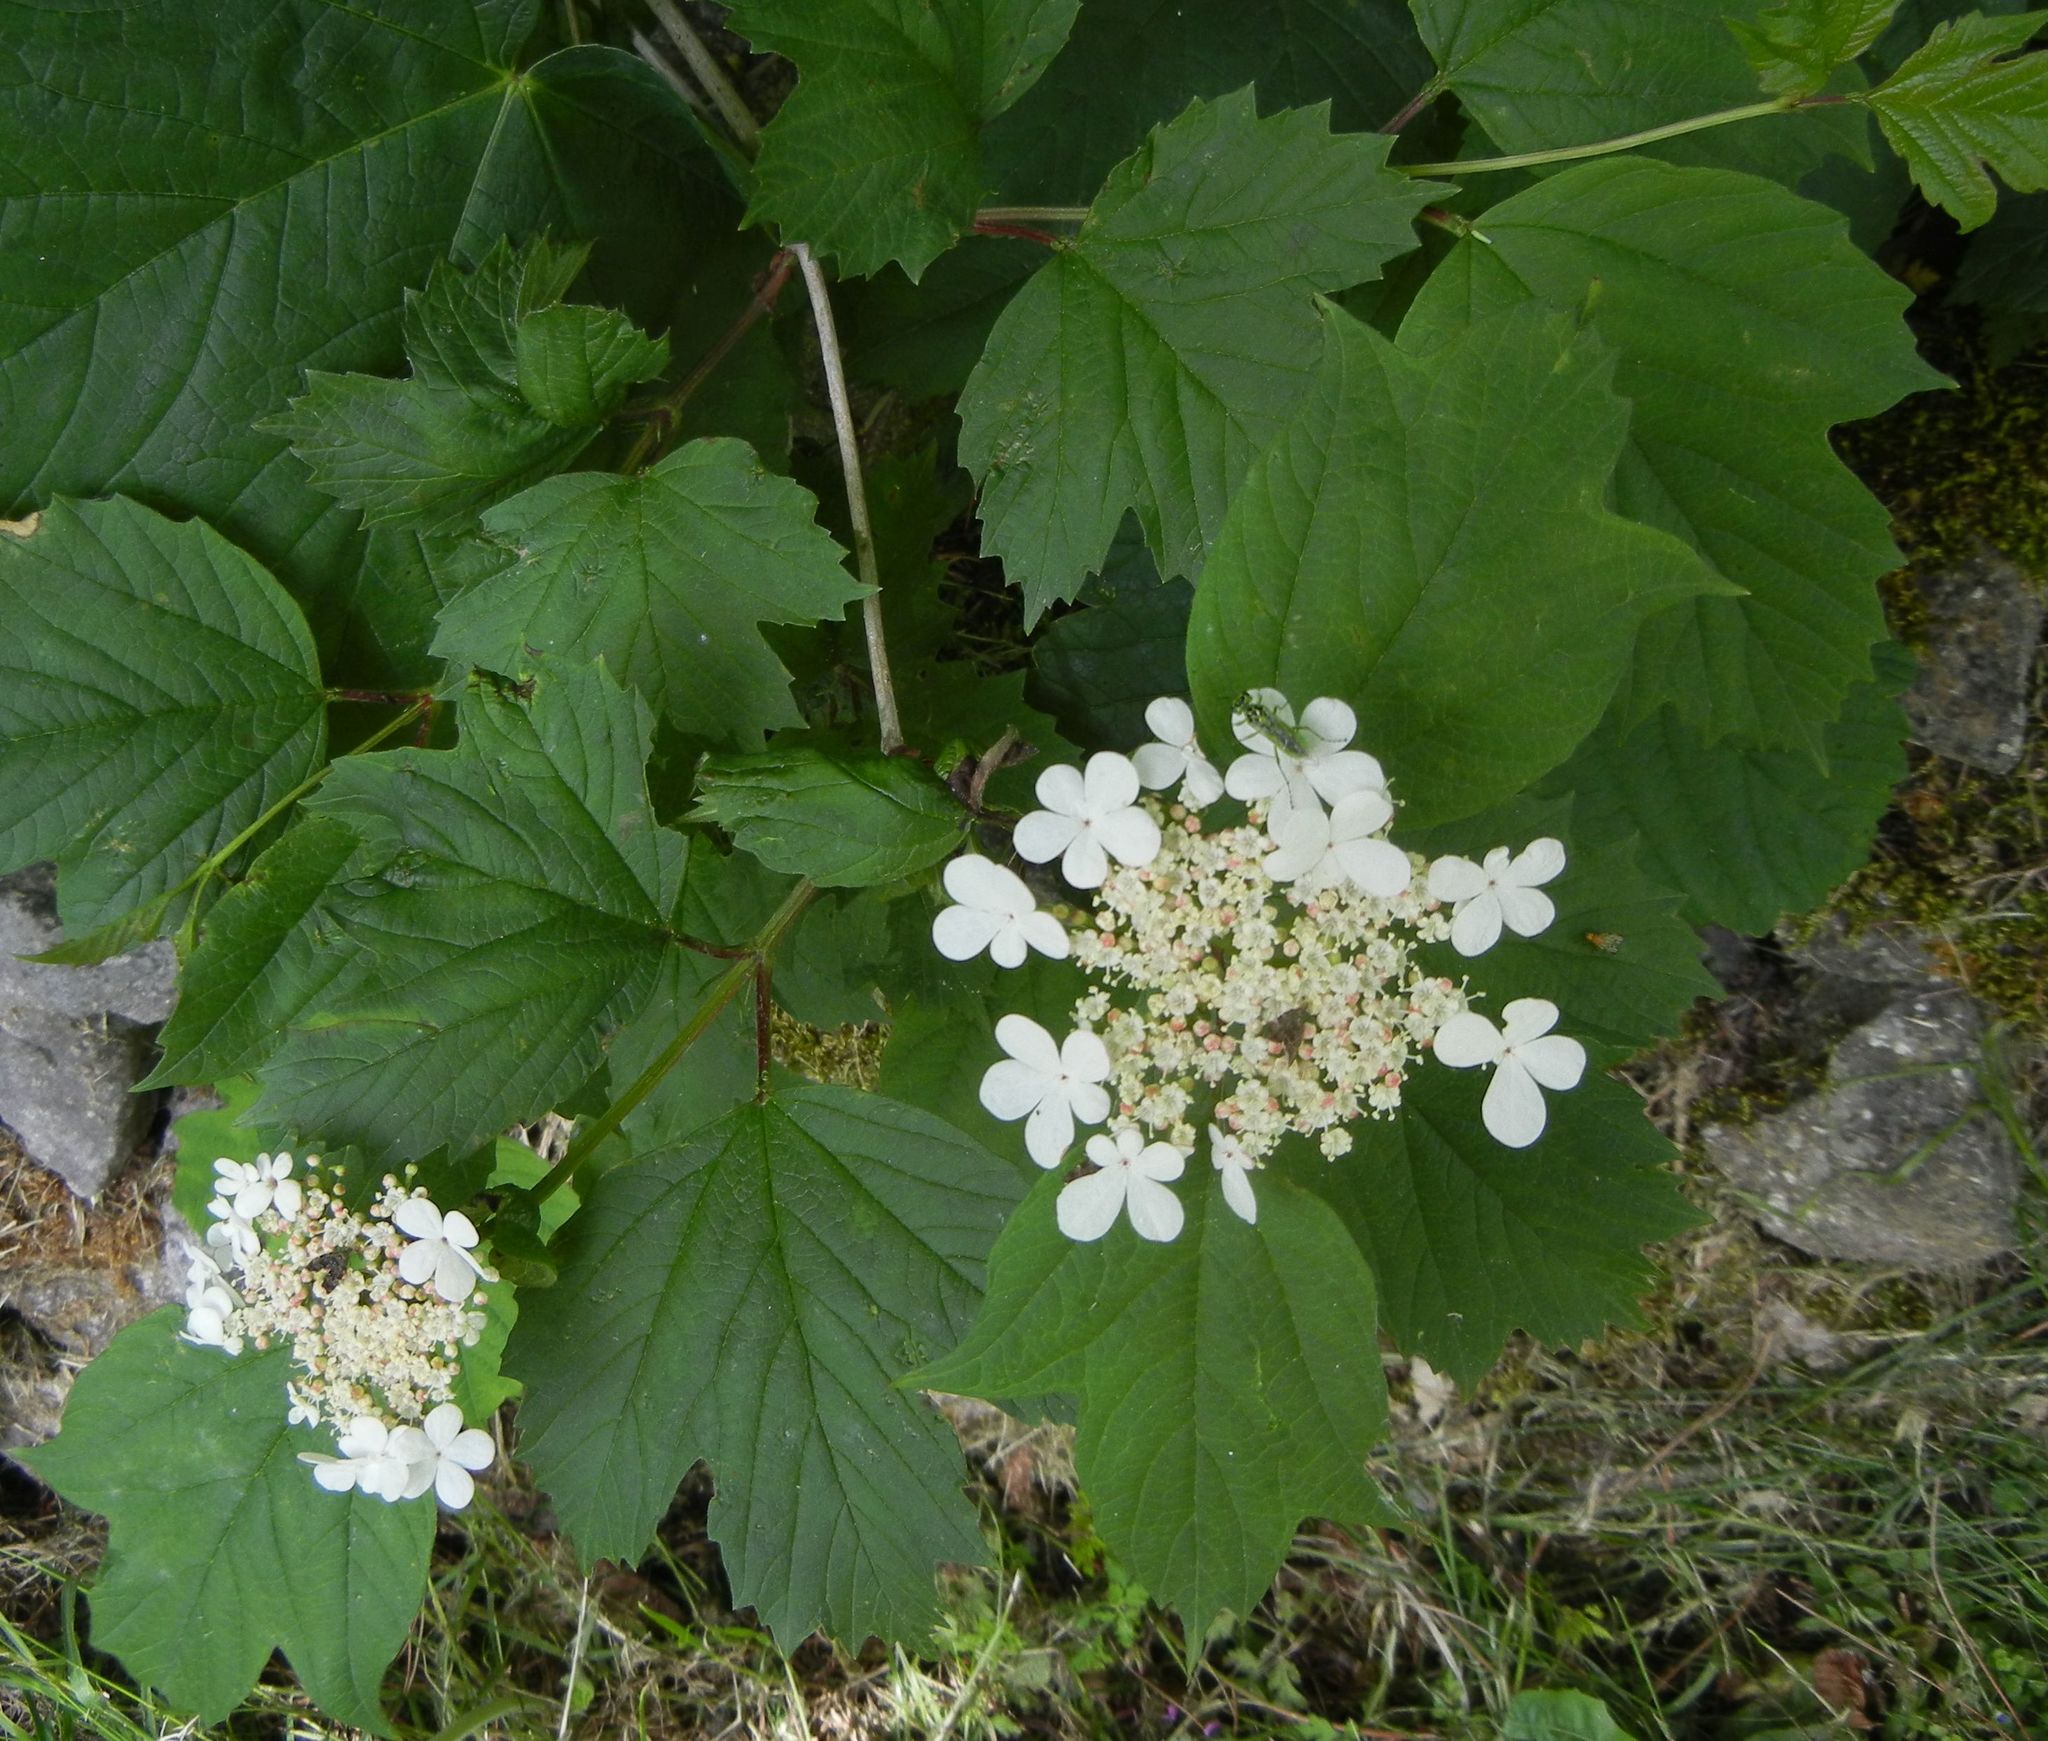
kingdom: Plantae
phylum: Tracheophyta
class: Magnoliopsida
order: Dipsacales
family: Viburnaceae
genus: Viburnum
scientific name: Viburnum opulus
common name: Guelder-rose
